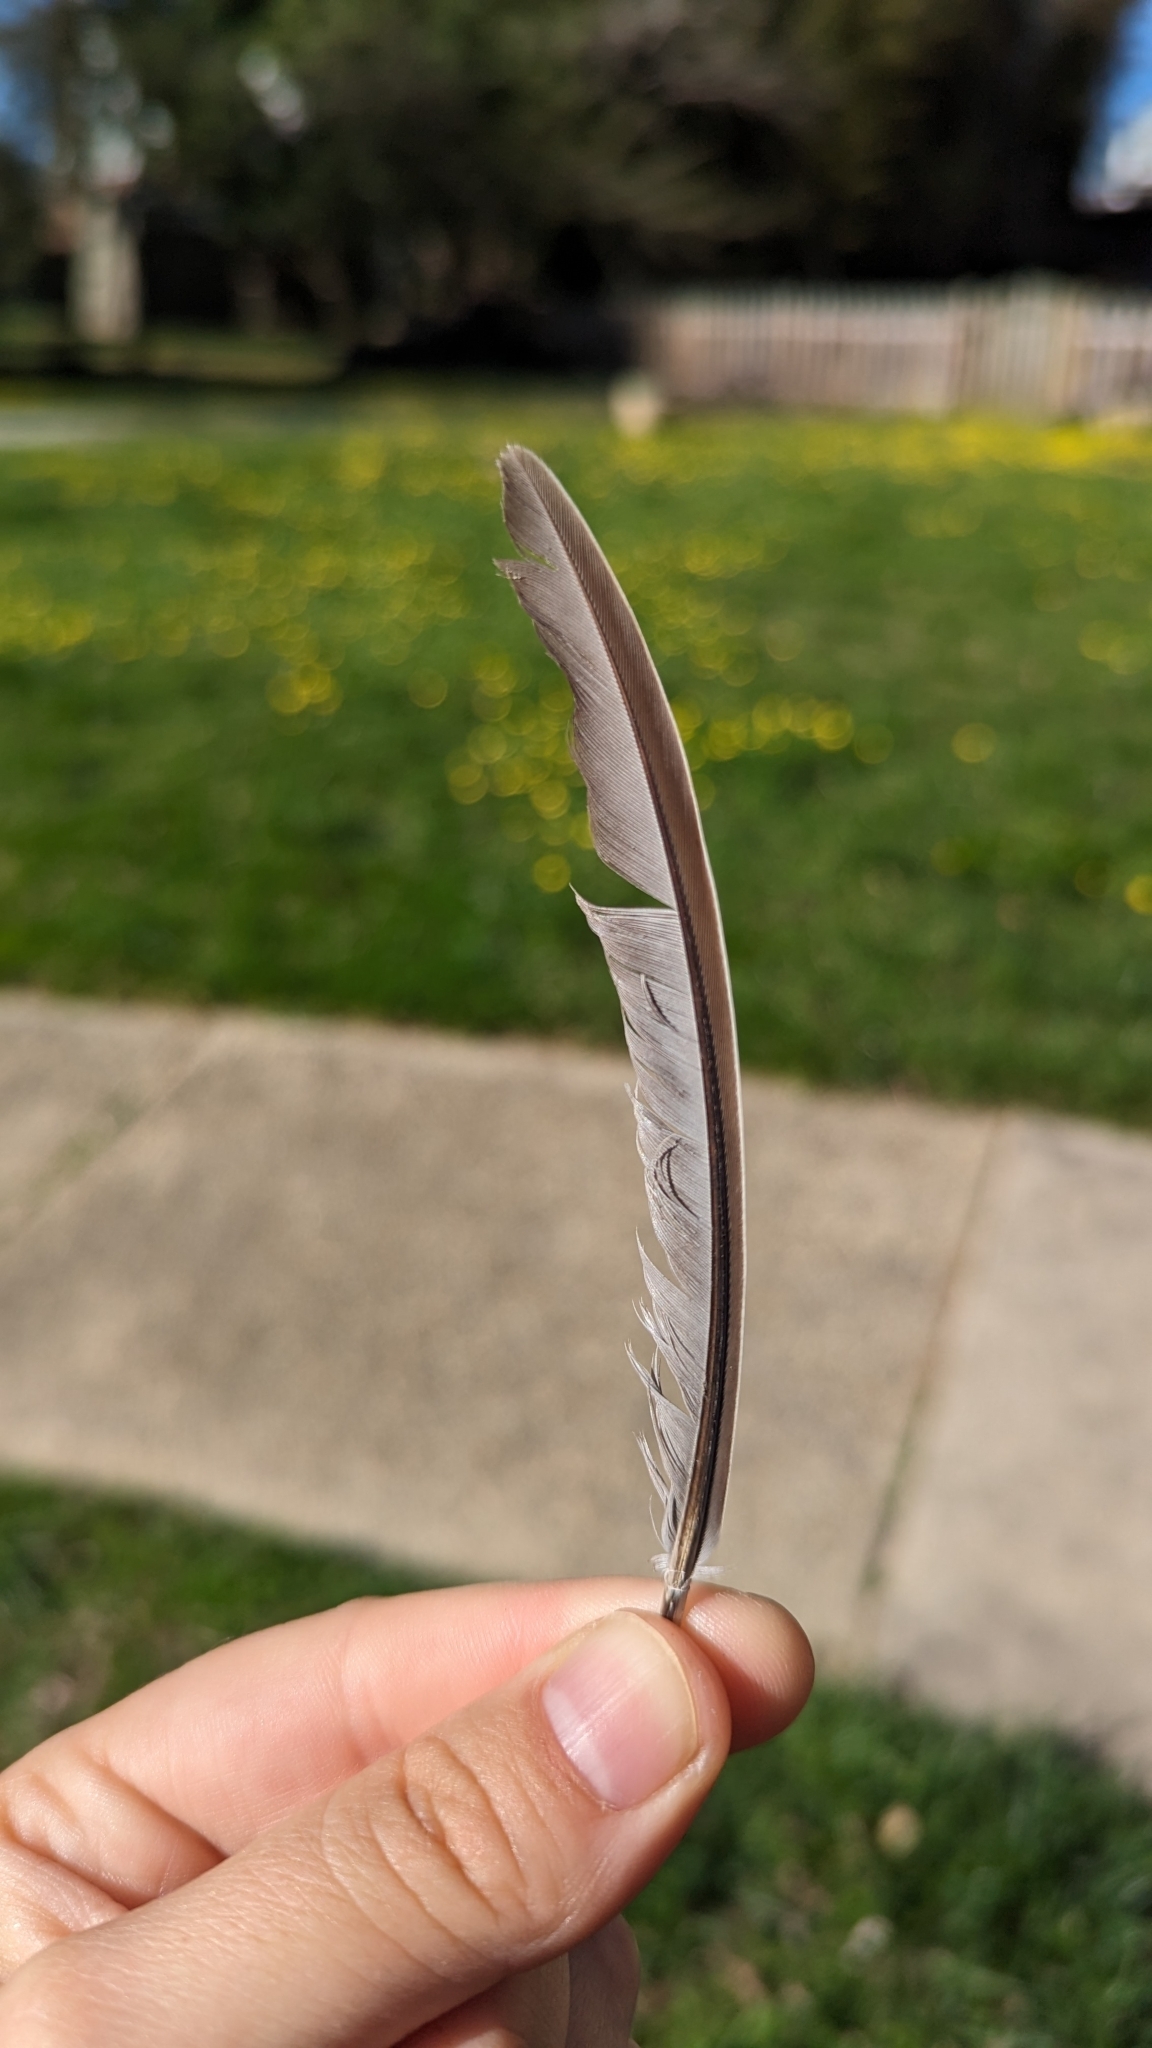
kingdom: Animalia
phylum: Chordata
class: Aves
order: Columbiformes
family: Columbidae
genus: Zenaida
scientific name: Zenaida macroura
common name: Mourning dove
